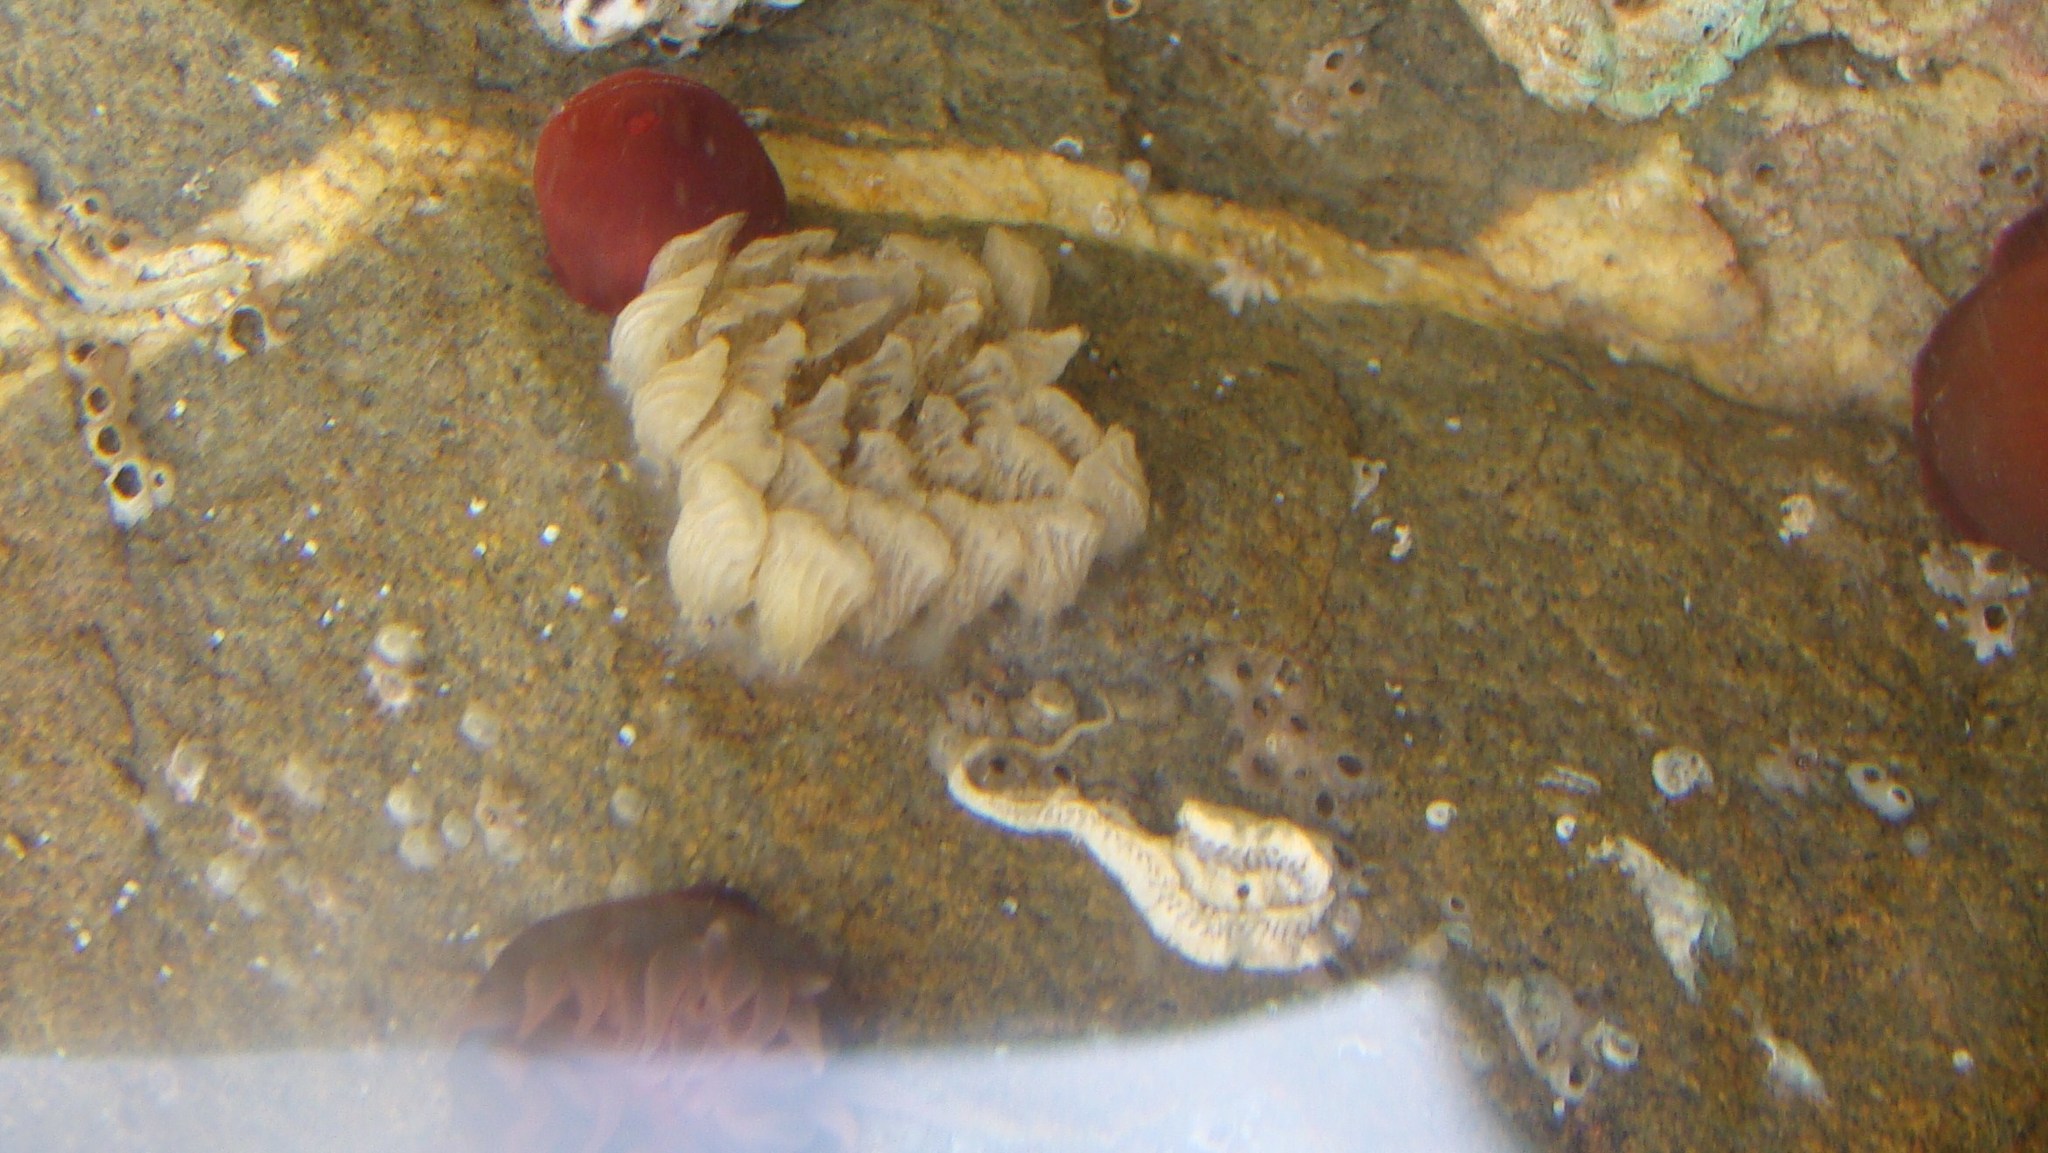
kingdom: Animalia
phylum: Mollusca
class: Gastropoda
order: Neogastropoda
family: Cominellidae
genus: Cominella
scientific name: Cominella virgata
